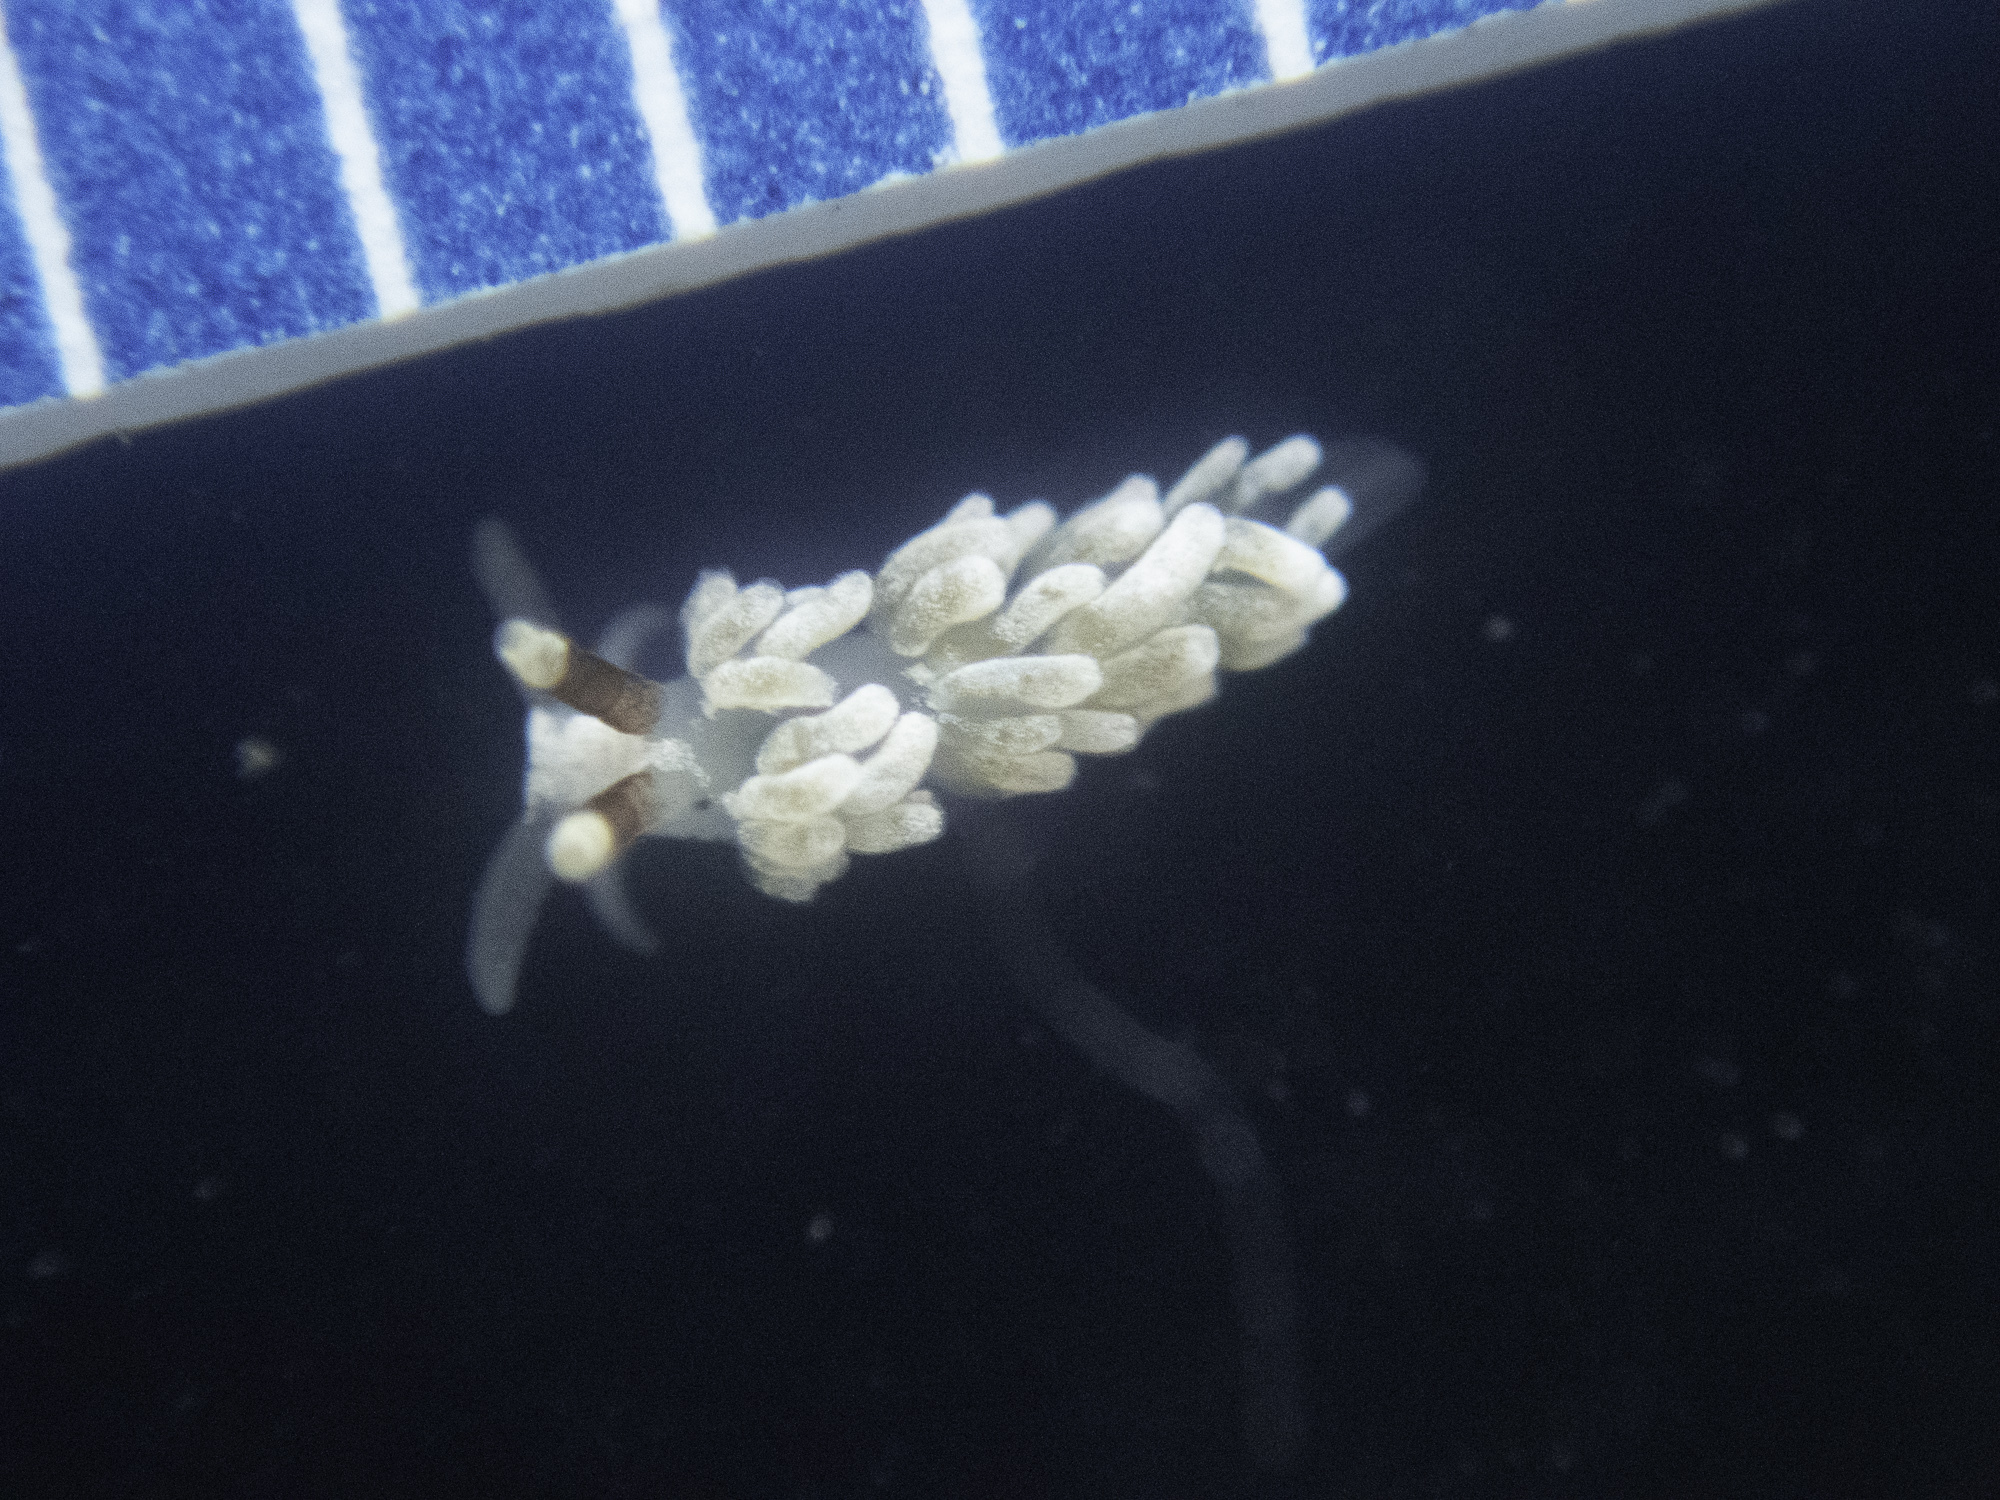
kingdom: Animalia
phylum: Mollusca
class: Gastropoda
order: Nudibranchia
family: Facelinidae
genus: Favorinus
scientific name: Favorinus branchialis
